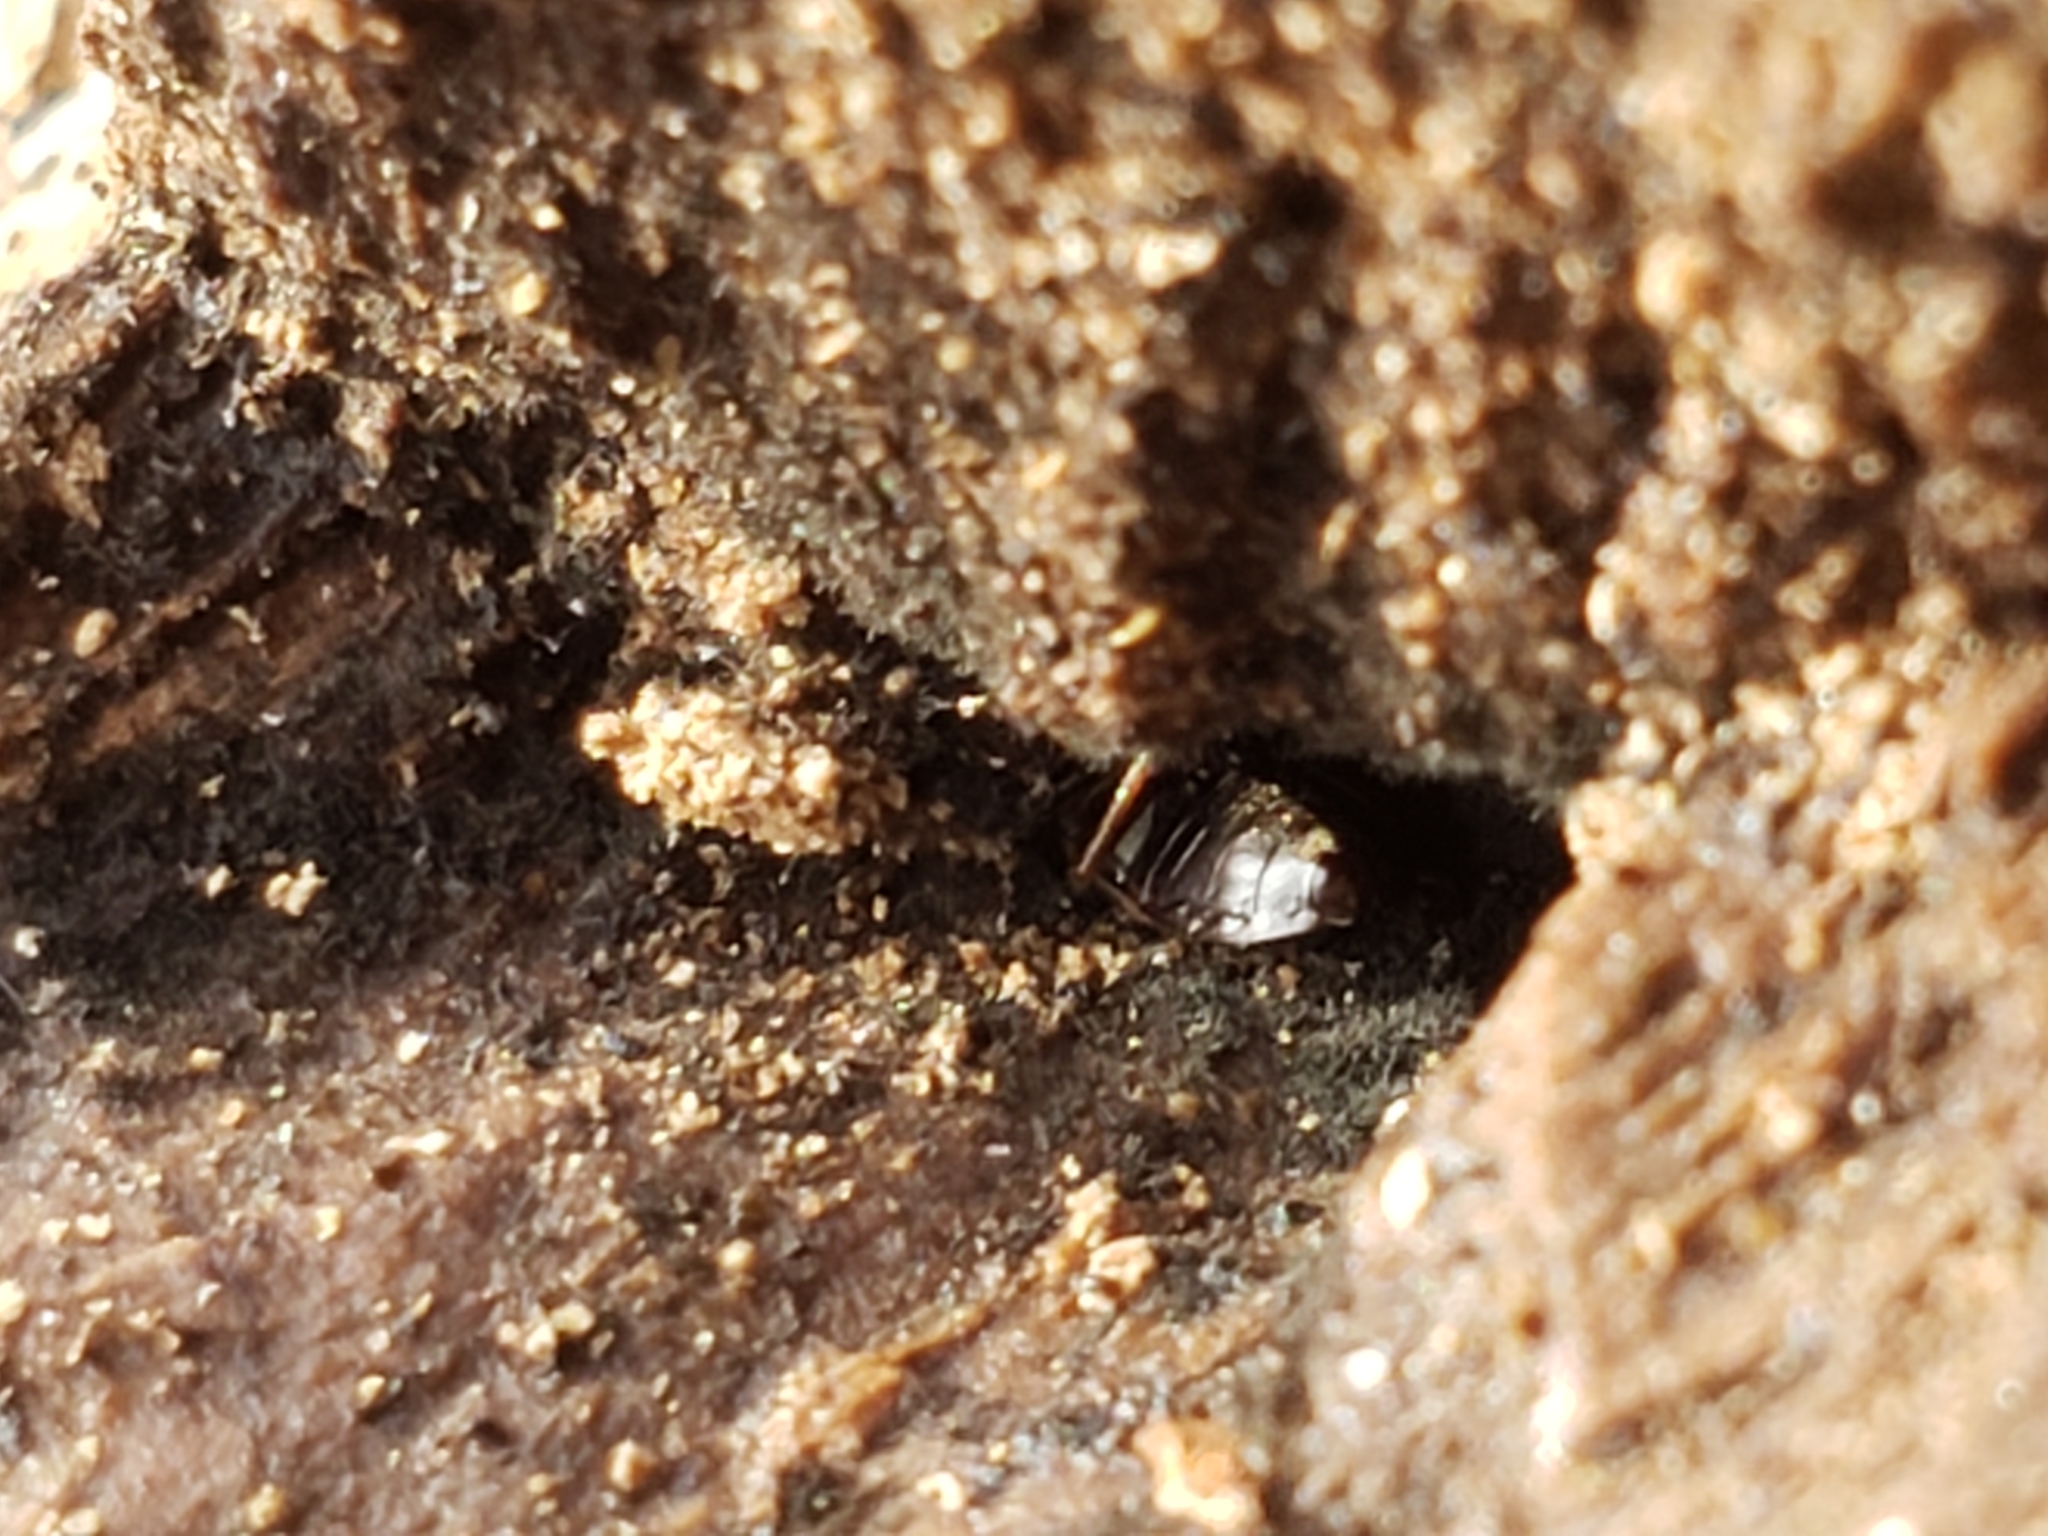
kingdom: Animalia
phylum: Arthropoda
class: Insecta
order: Hemiptera
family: Rhyparochromidae
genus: Cryphula
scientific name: Cryphula trimaculata
